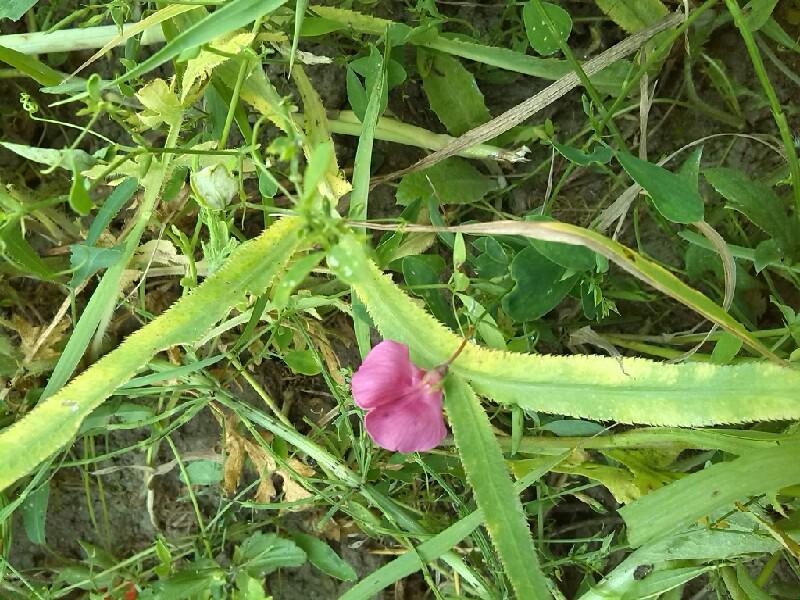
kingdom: Plantae
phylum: Tracheophyta
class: Magnoliopsida
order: Fabales
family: Fabaceae
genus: Lathyrus
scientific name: Lathyrus tuberosus
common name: Tuberous pea
